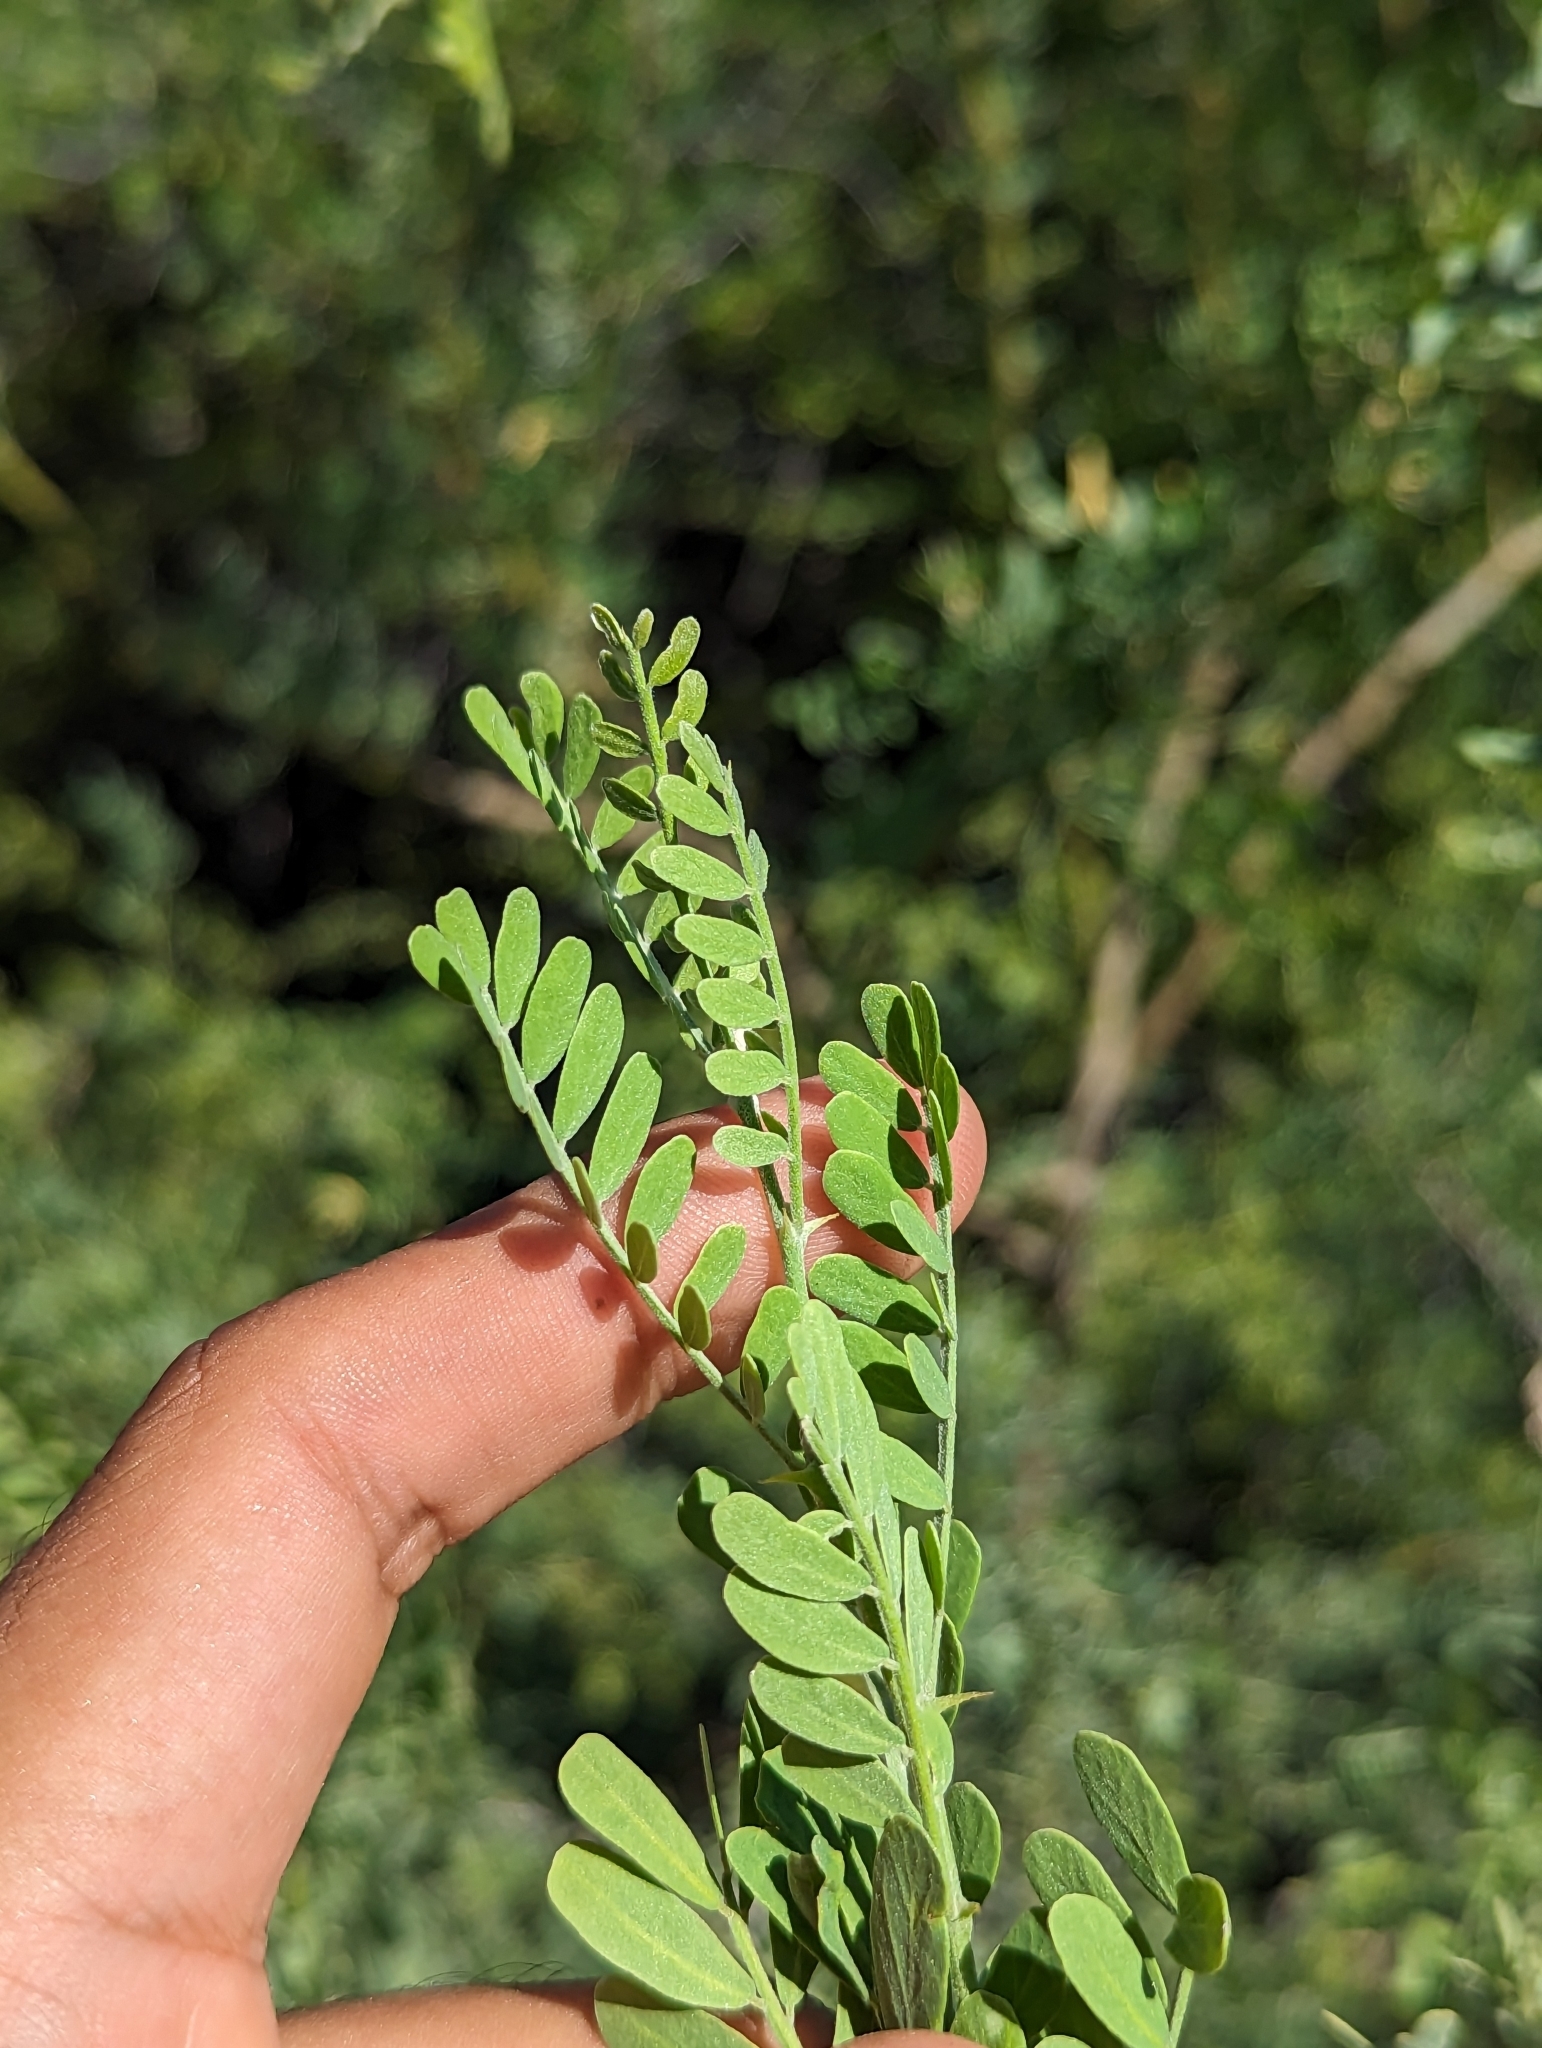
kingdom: Plantae
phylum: Tracheophyta
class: Magnoliopsida
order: Fabales
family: Fabaceae
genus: Olneya
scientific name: Olneya tesota
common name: Desert ironwood
